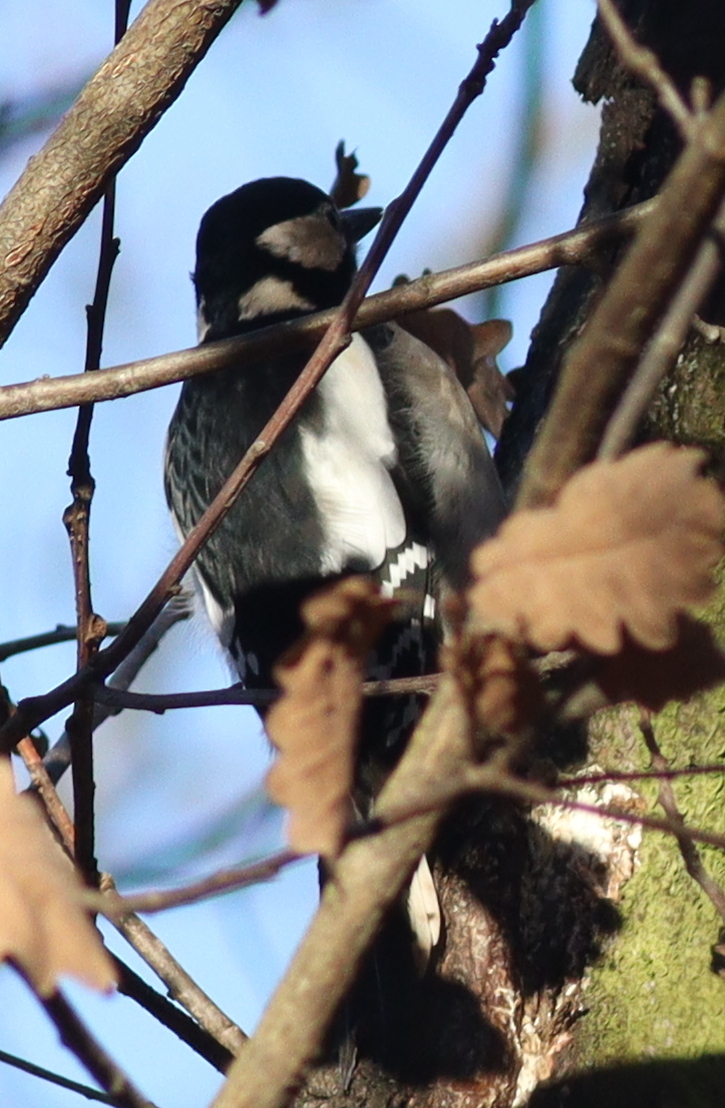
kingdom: Animalia
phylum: Chordata
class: Aves
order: Piciformes
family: Picidae
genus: Dendrocopos
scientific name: Dendrocopos major
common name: Great spotted woodpecker
